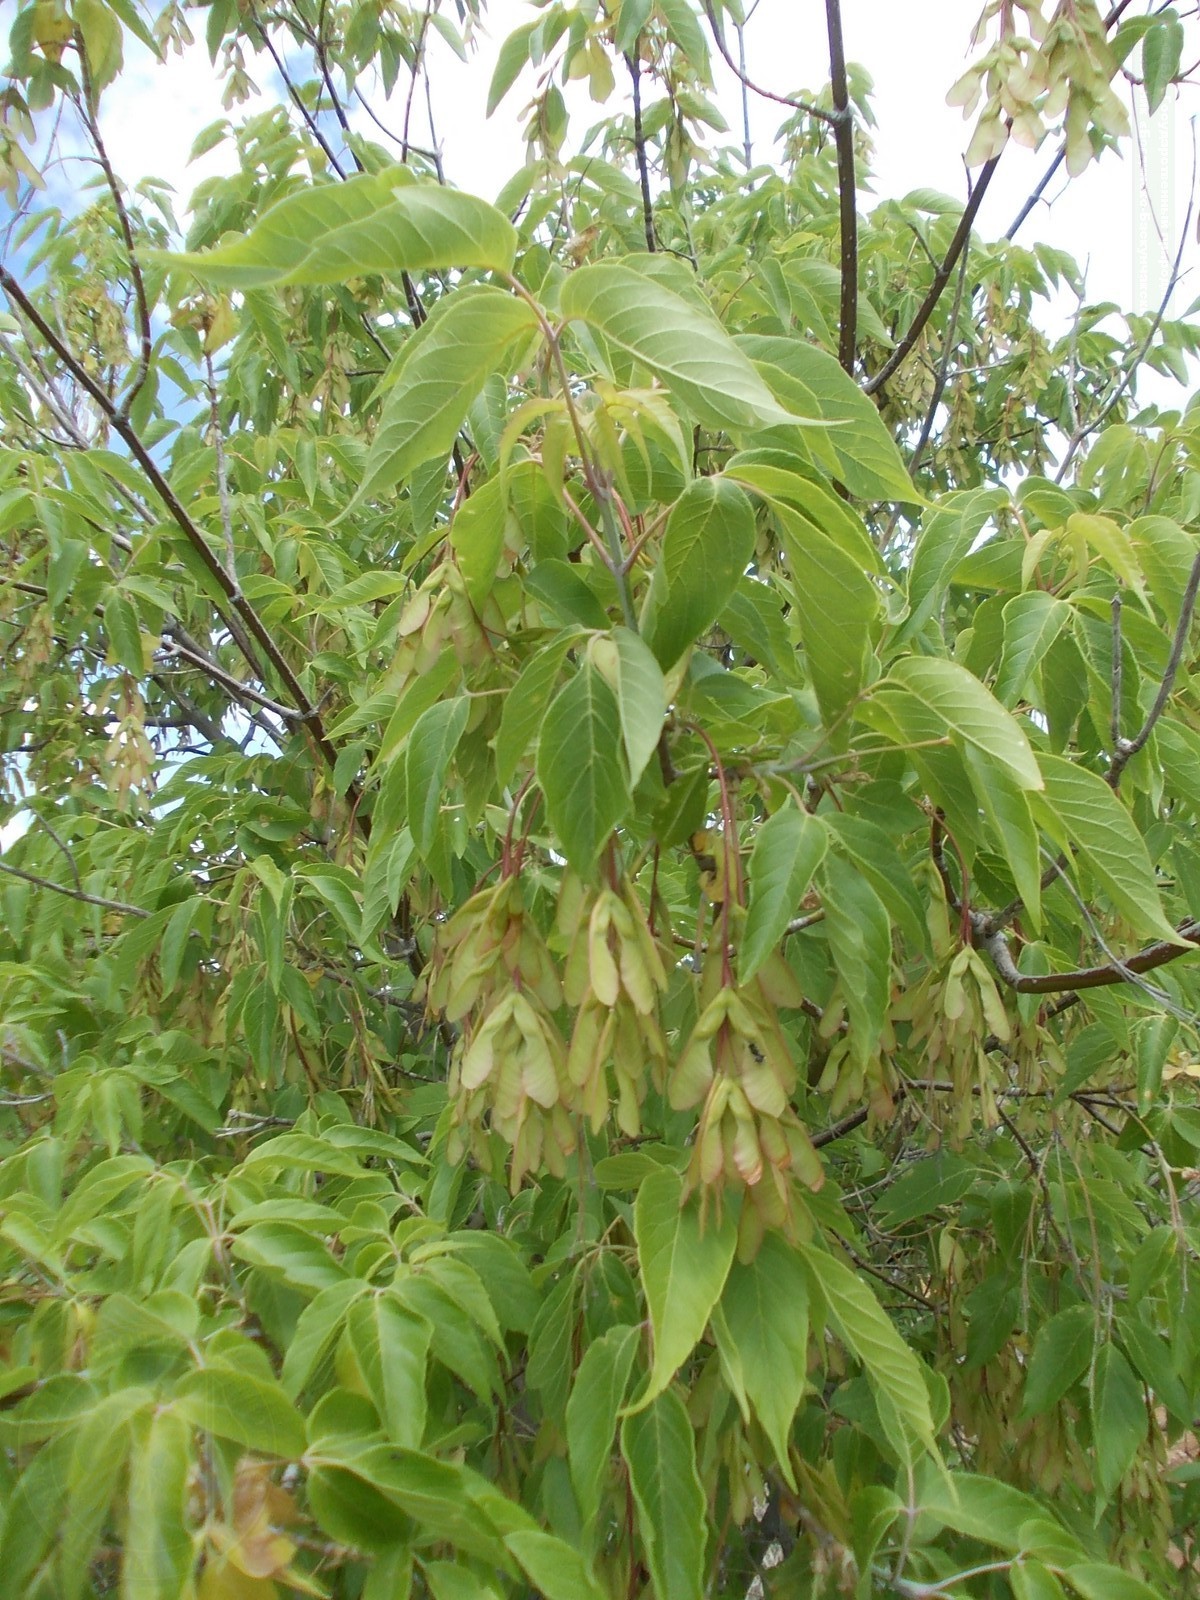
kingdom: Plantae
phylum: Tracheophyta
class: Magnoliopsida
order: Sapindales
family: Sapindaceae
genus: Acer
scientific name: Acer negundo
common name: Ashleaf maple
